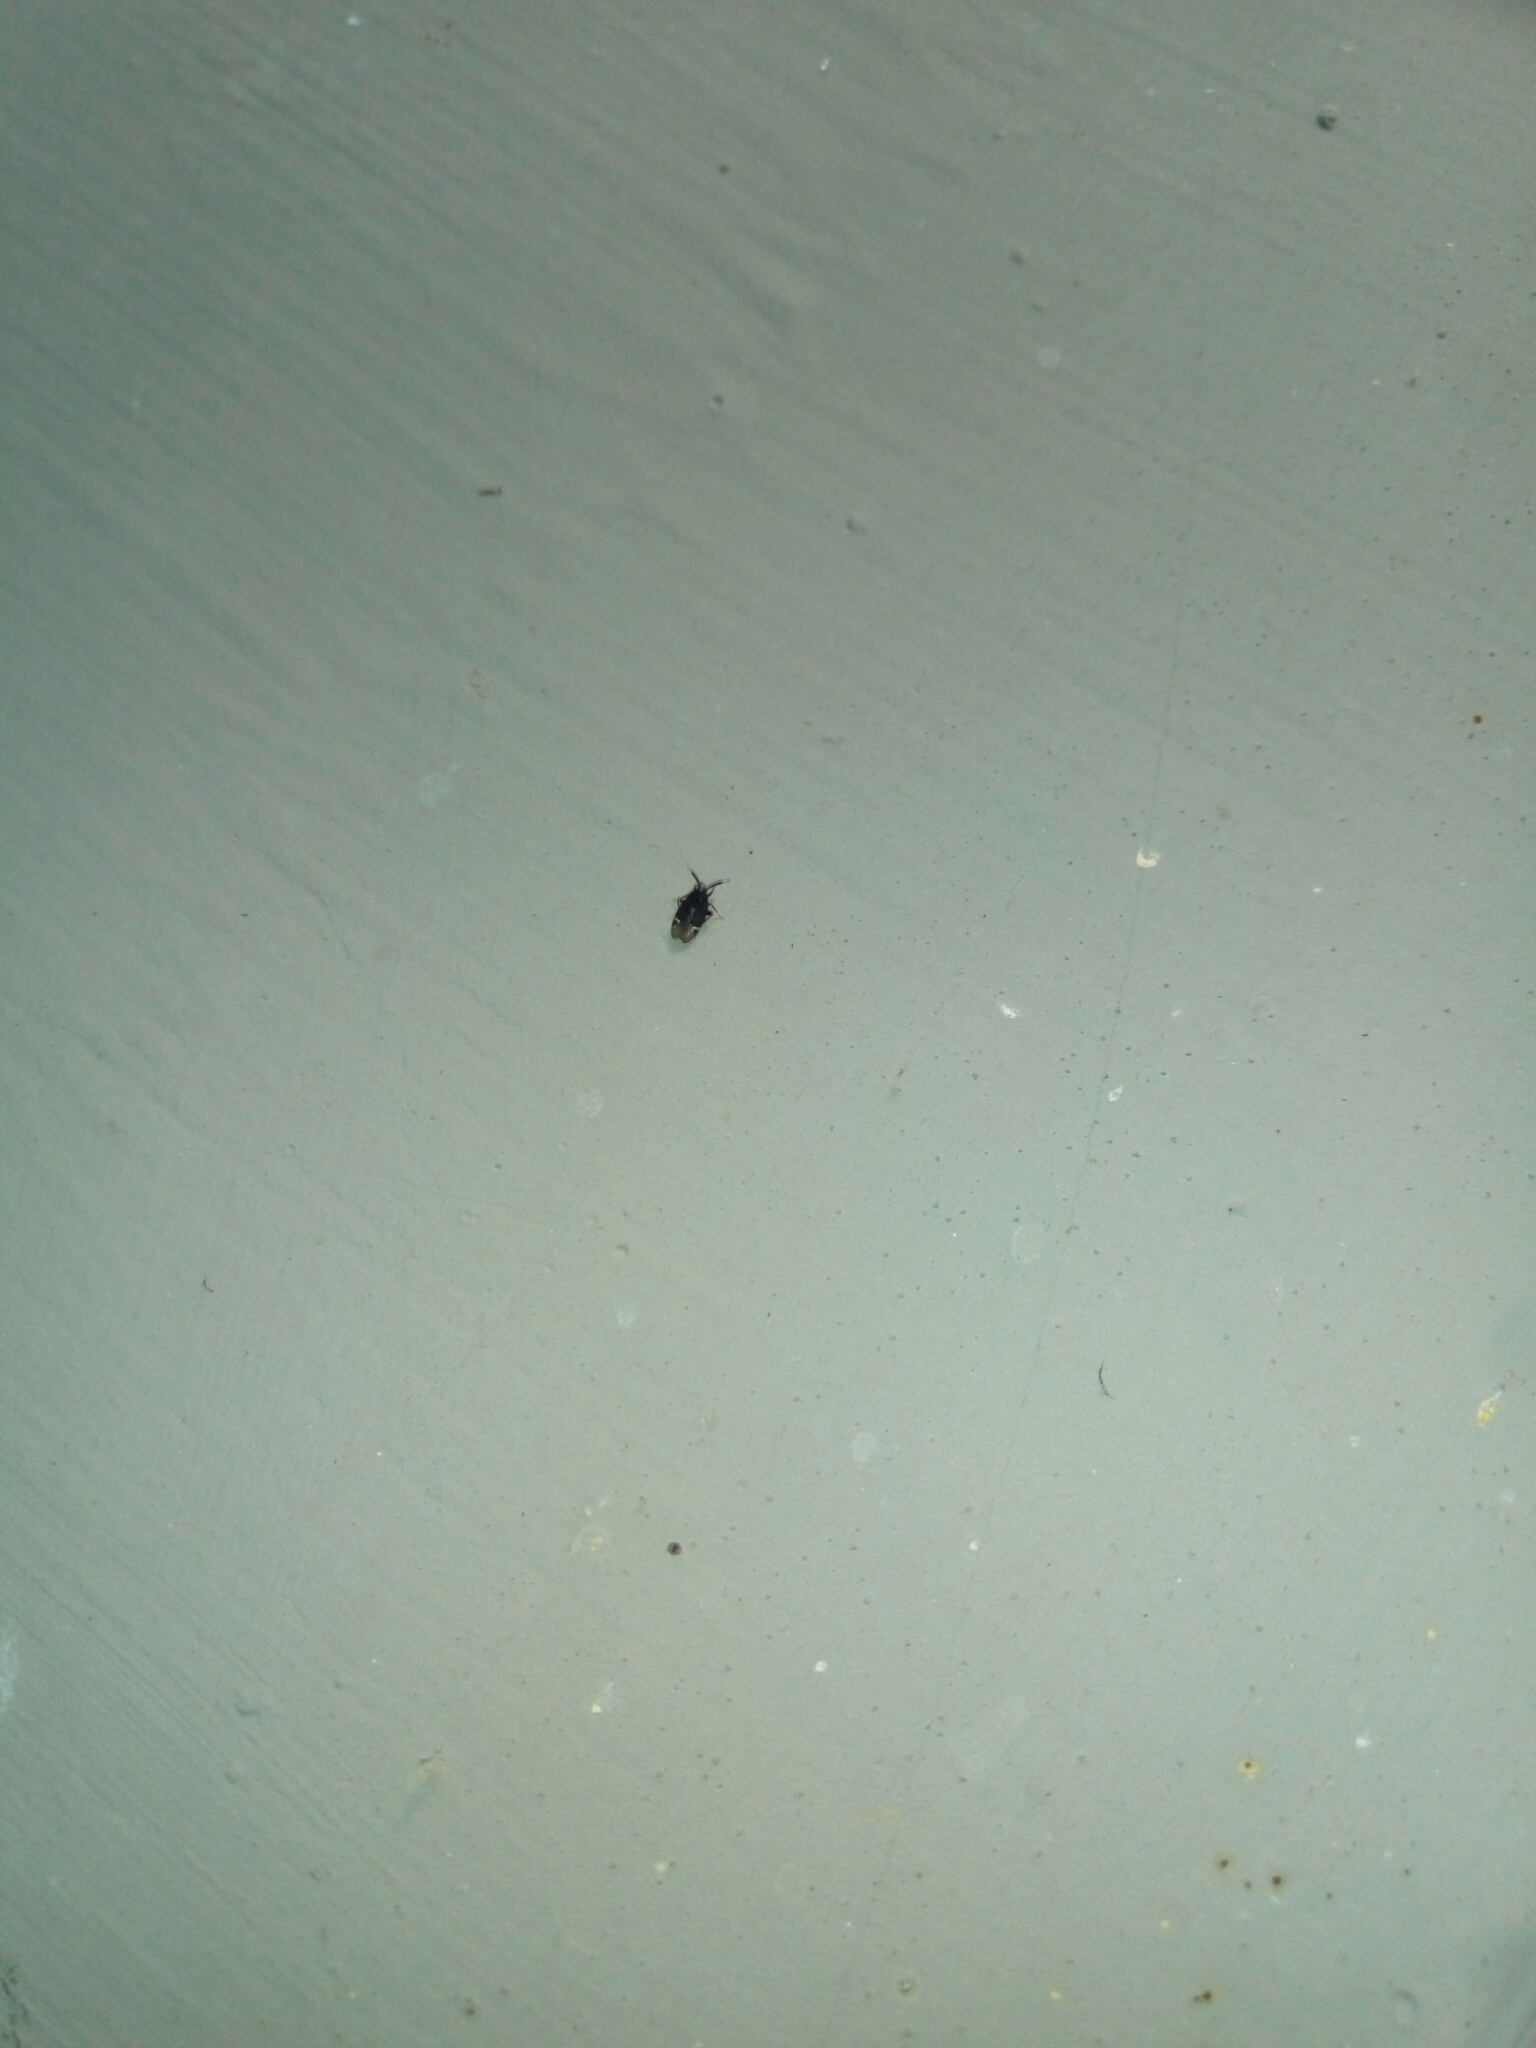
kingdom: Animalia
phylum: Arthropoda
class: Insecta
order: Hemiptera
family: Miridae
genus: Myiomma
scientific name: Myiomma cixiiforme
